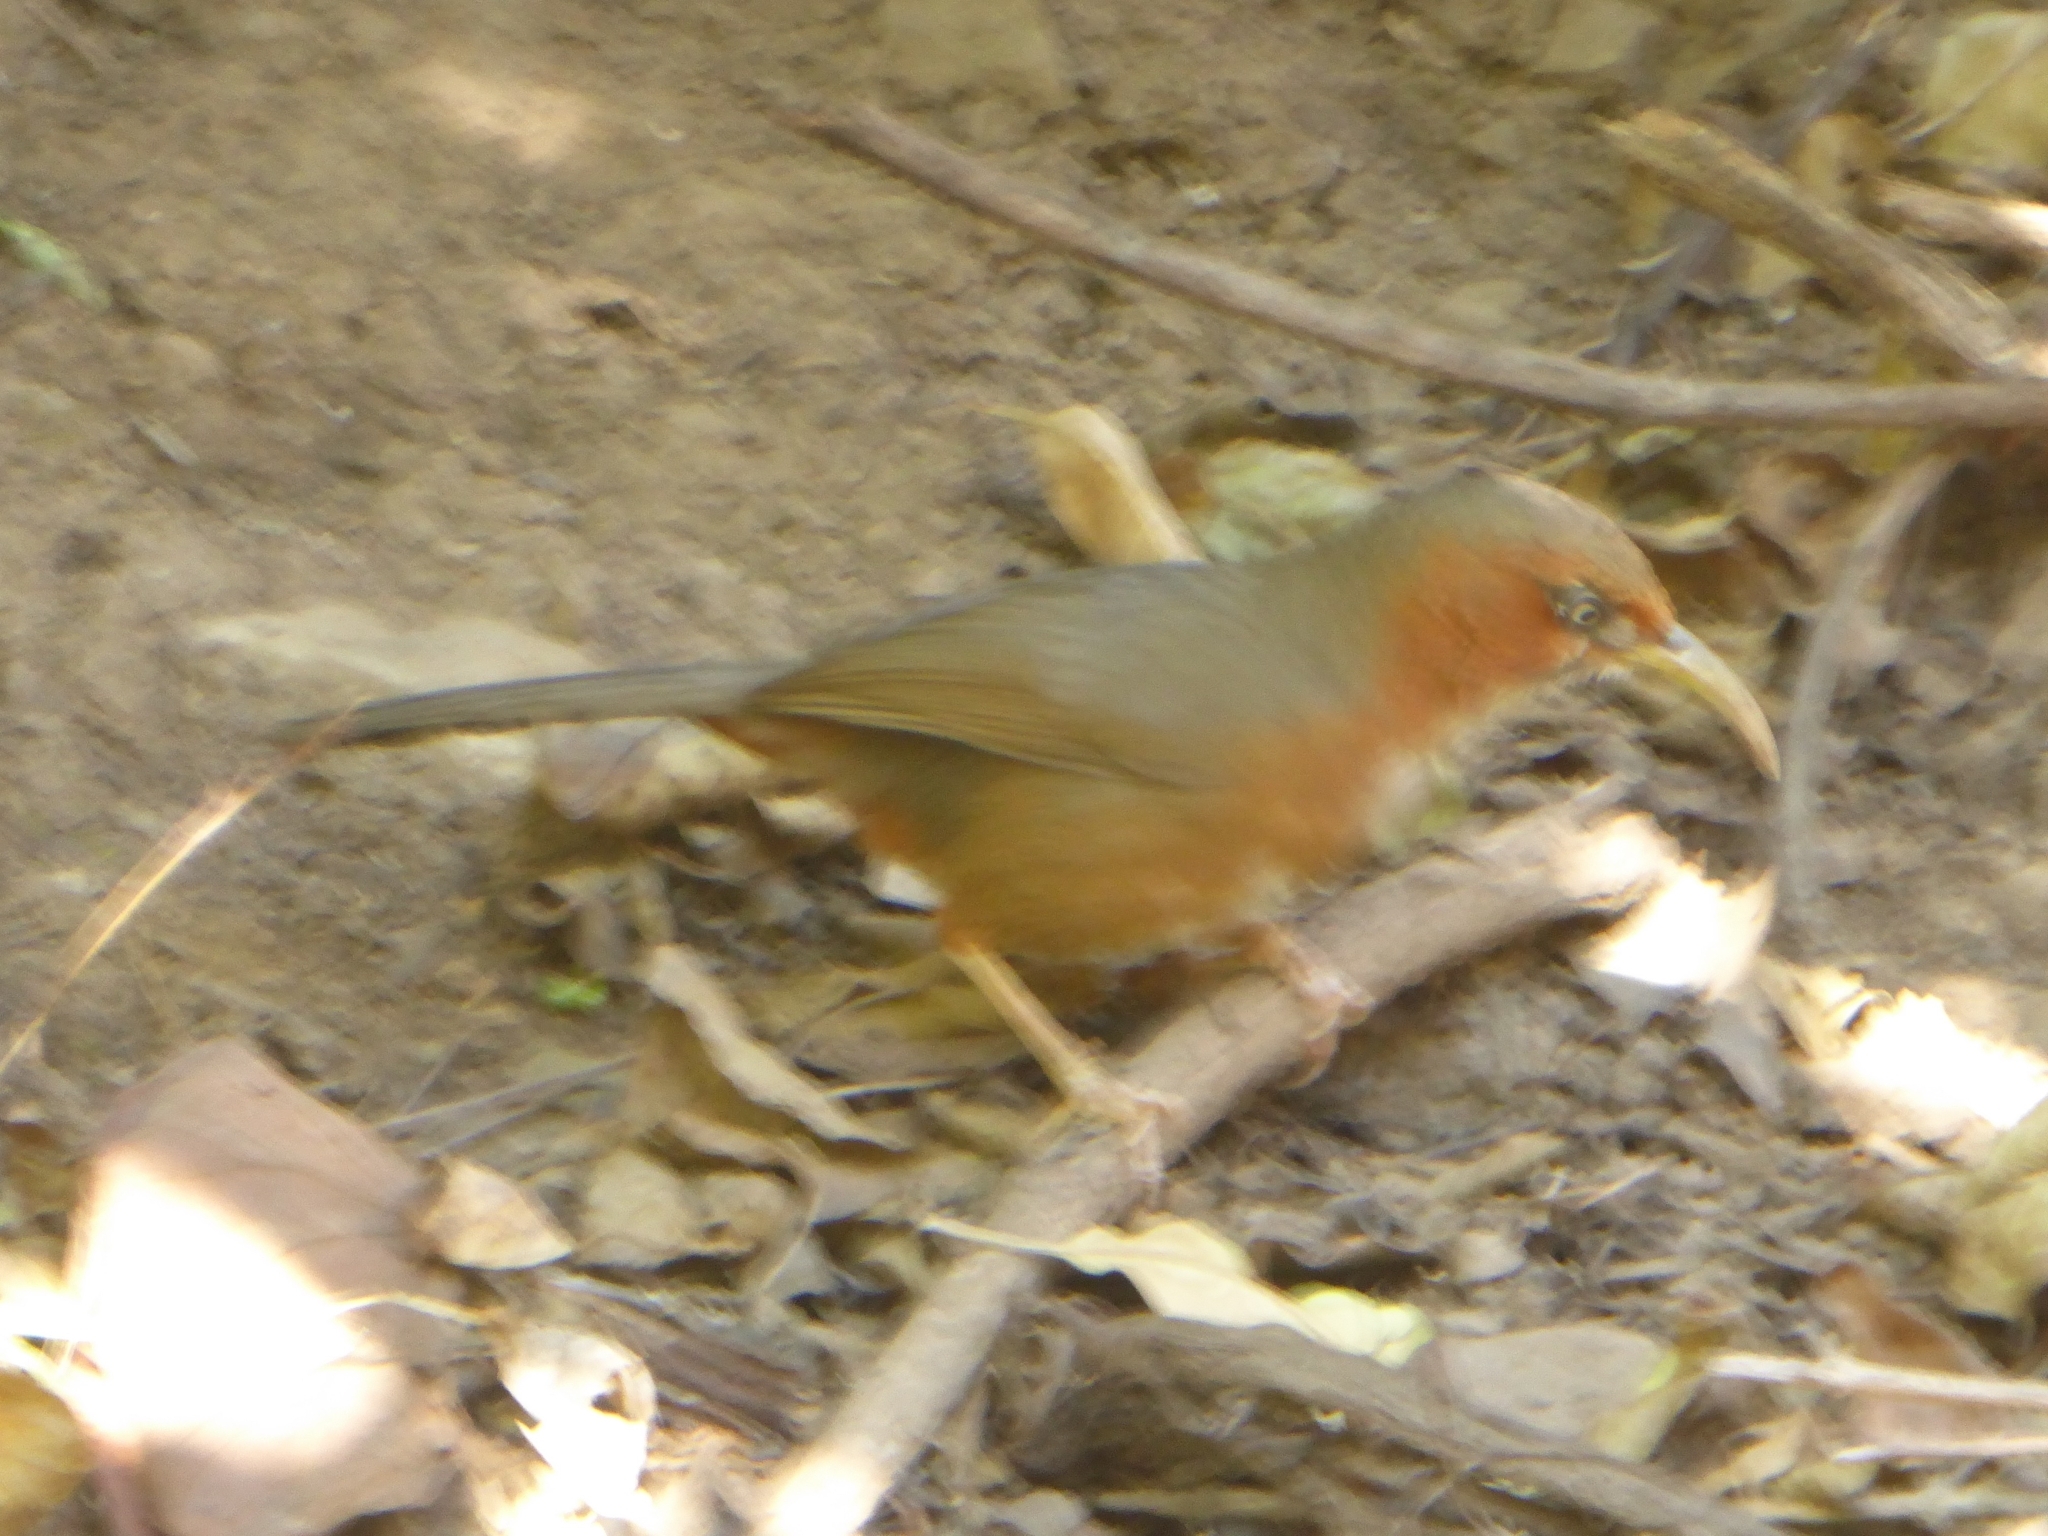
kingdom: Animalia
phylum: Chordata
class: Aves
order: Passeriformes
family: Timaliidae
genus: Pomatorhinus
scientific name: Pomatorhinus erythrogenys
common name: Rusty-cheeked scimitar babbler
